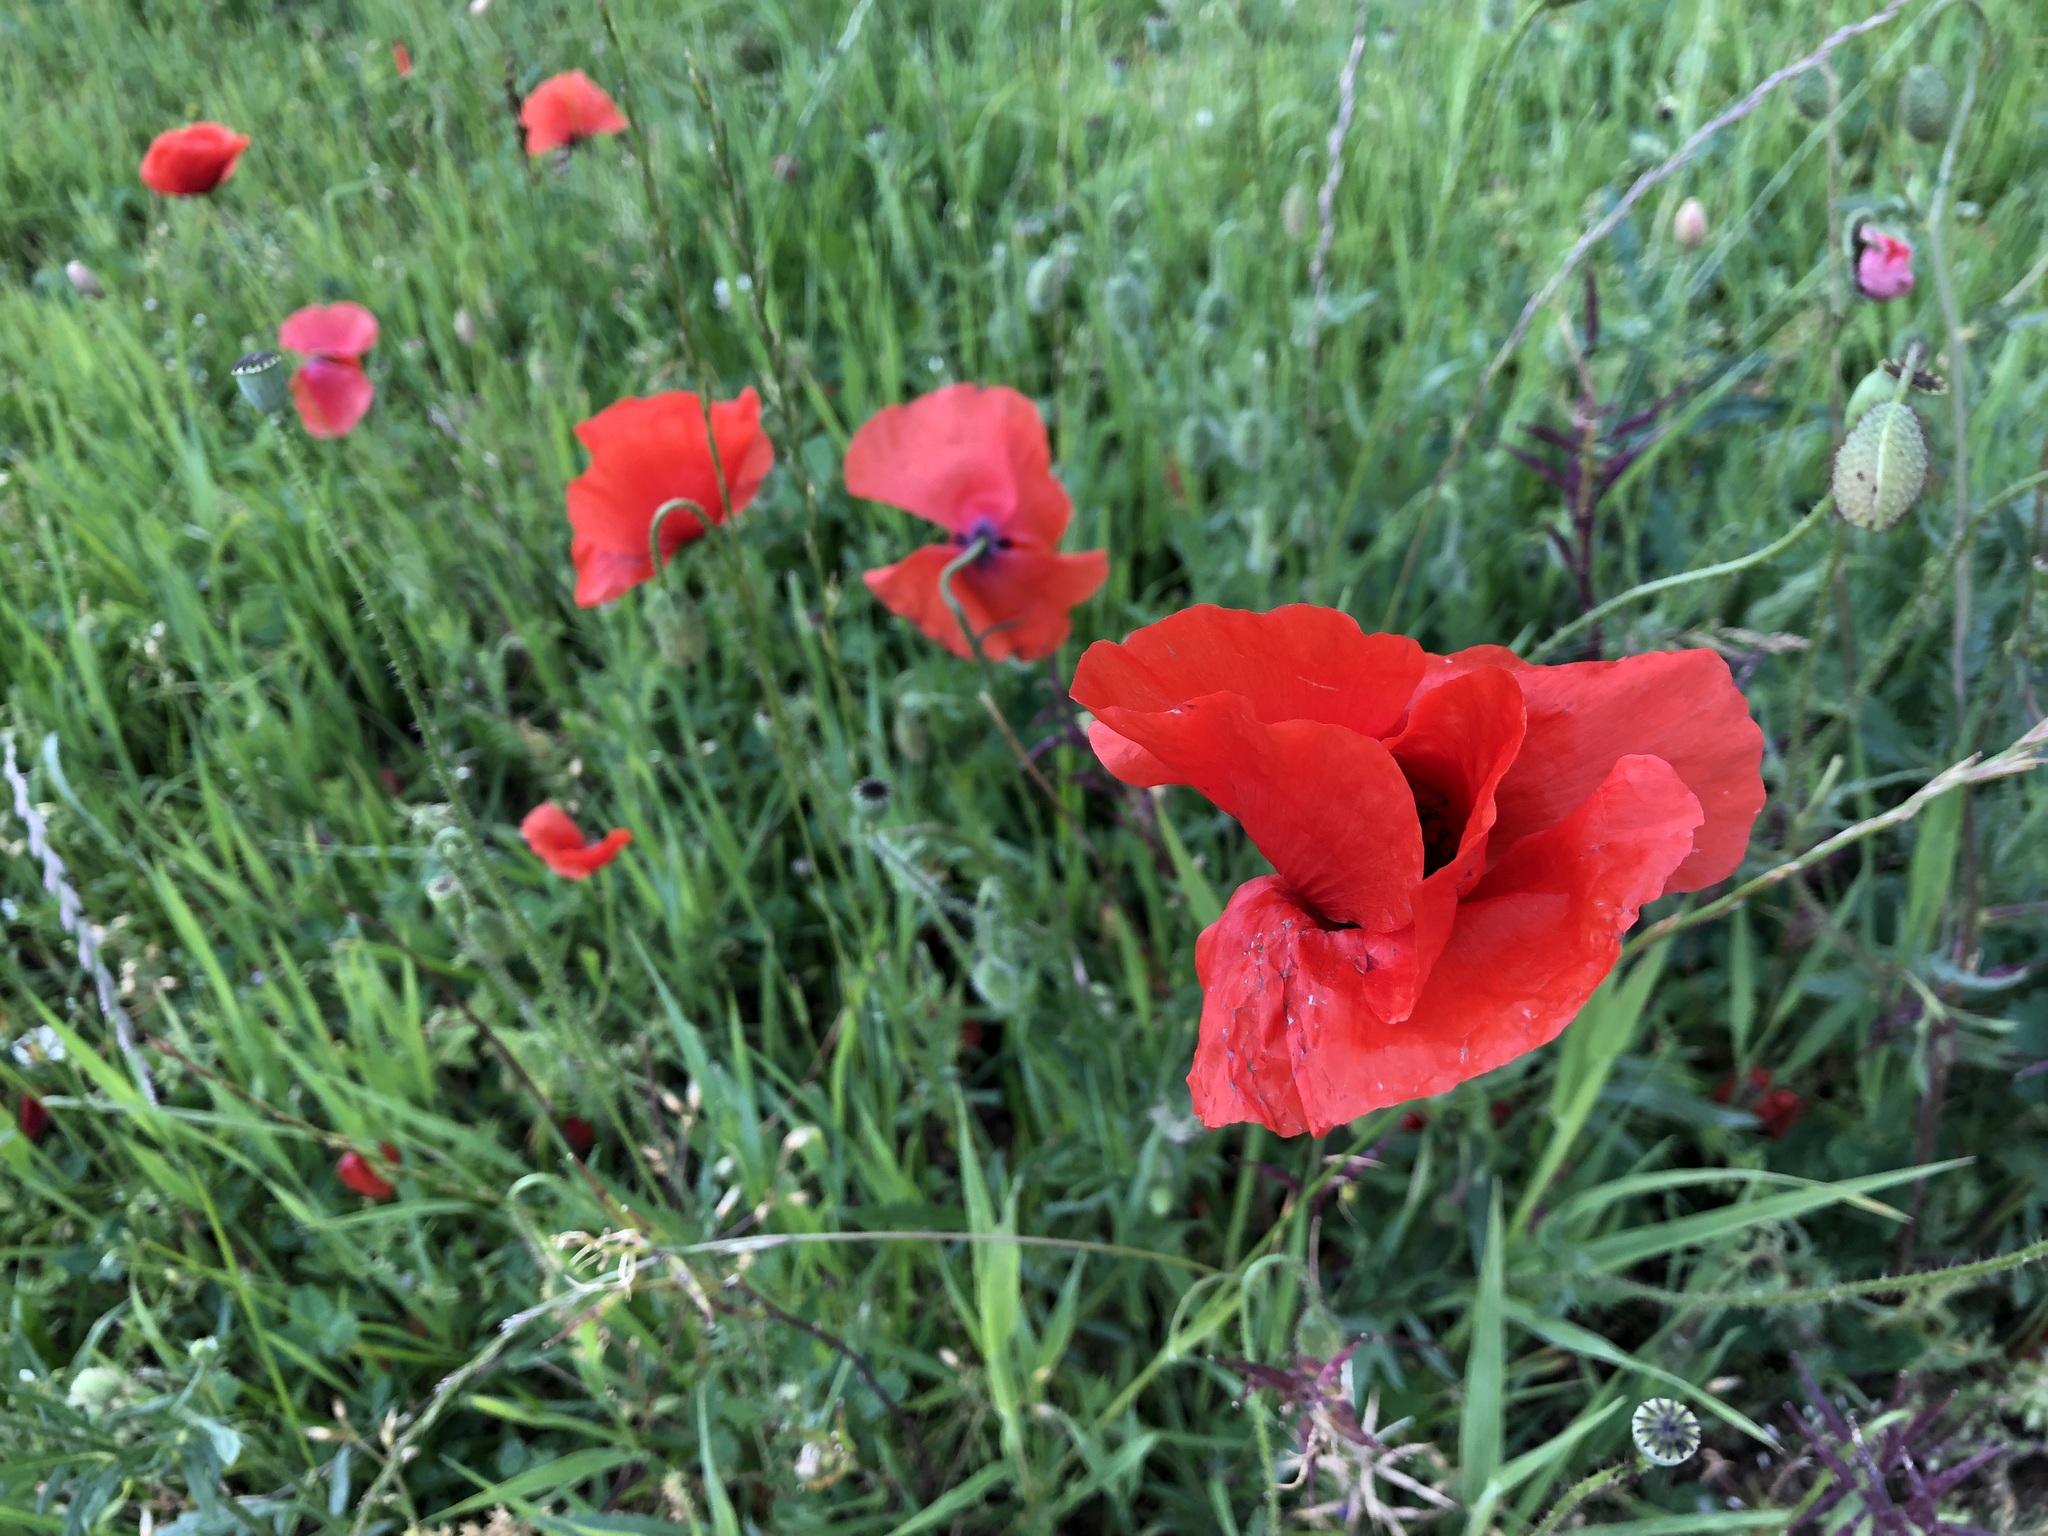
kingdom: Plantae
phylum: Tracheophyta
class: Magnoliopsida
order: Ranunculales
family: Papaveraceae
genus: Papaver
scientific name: Papaver rhoeas
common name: Corn poppy
